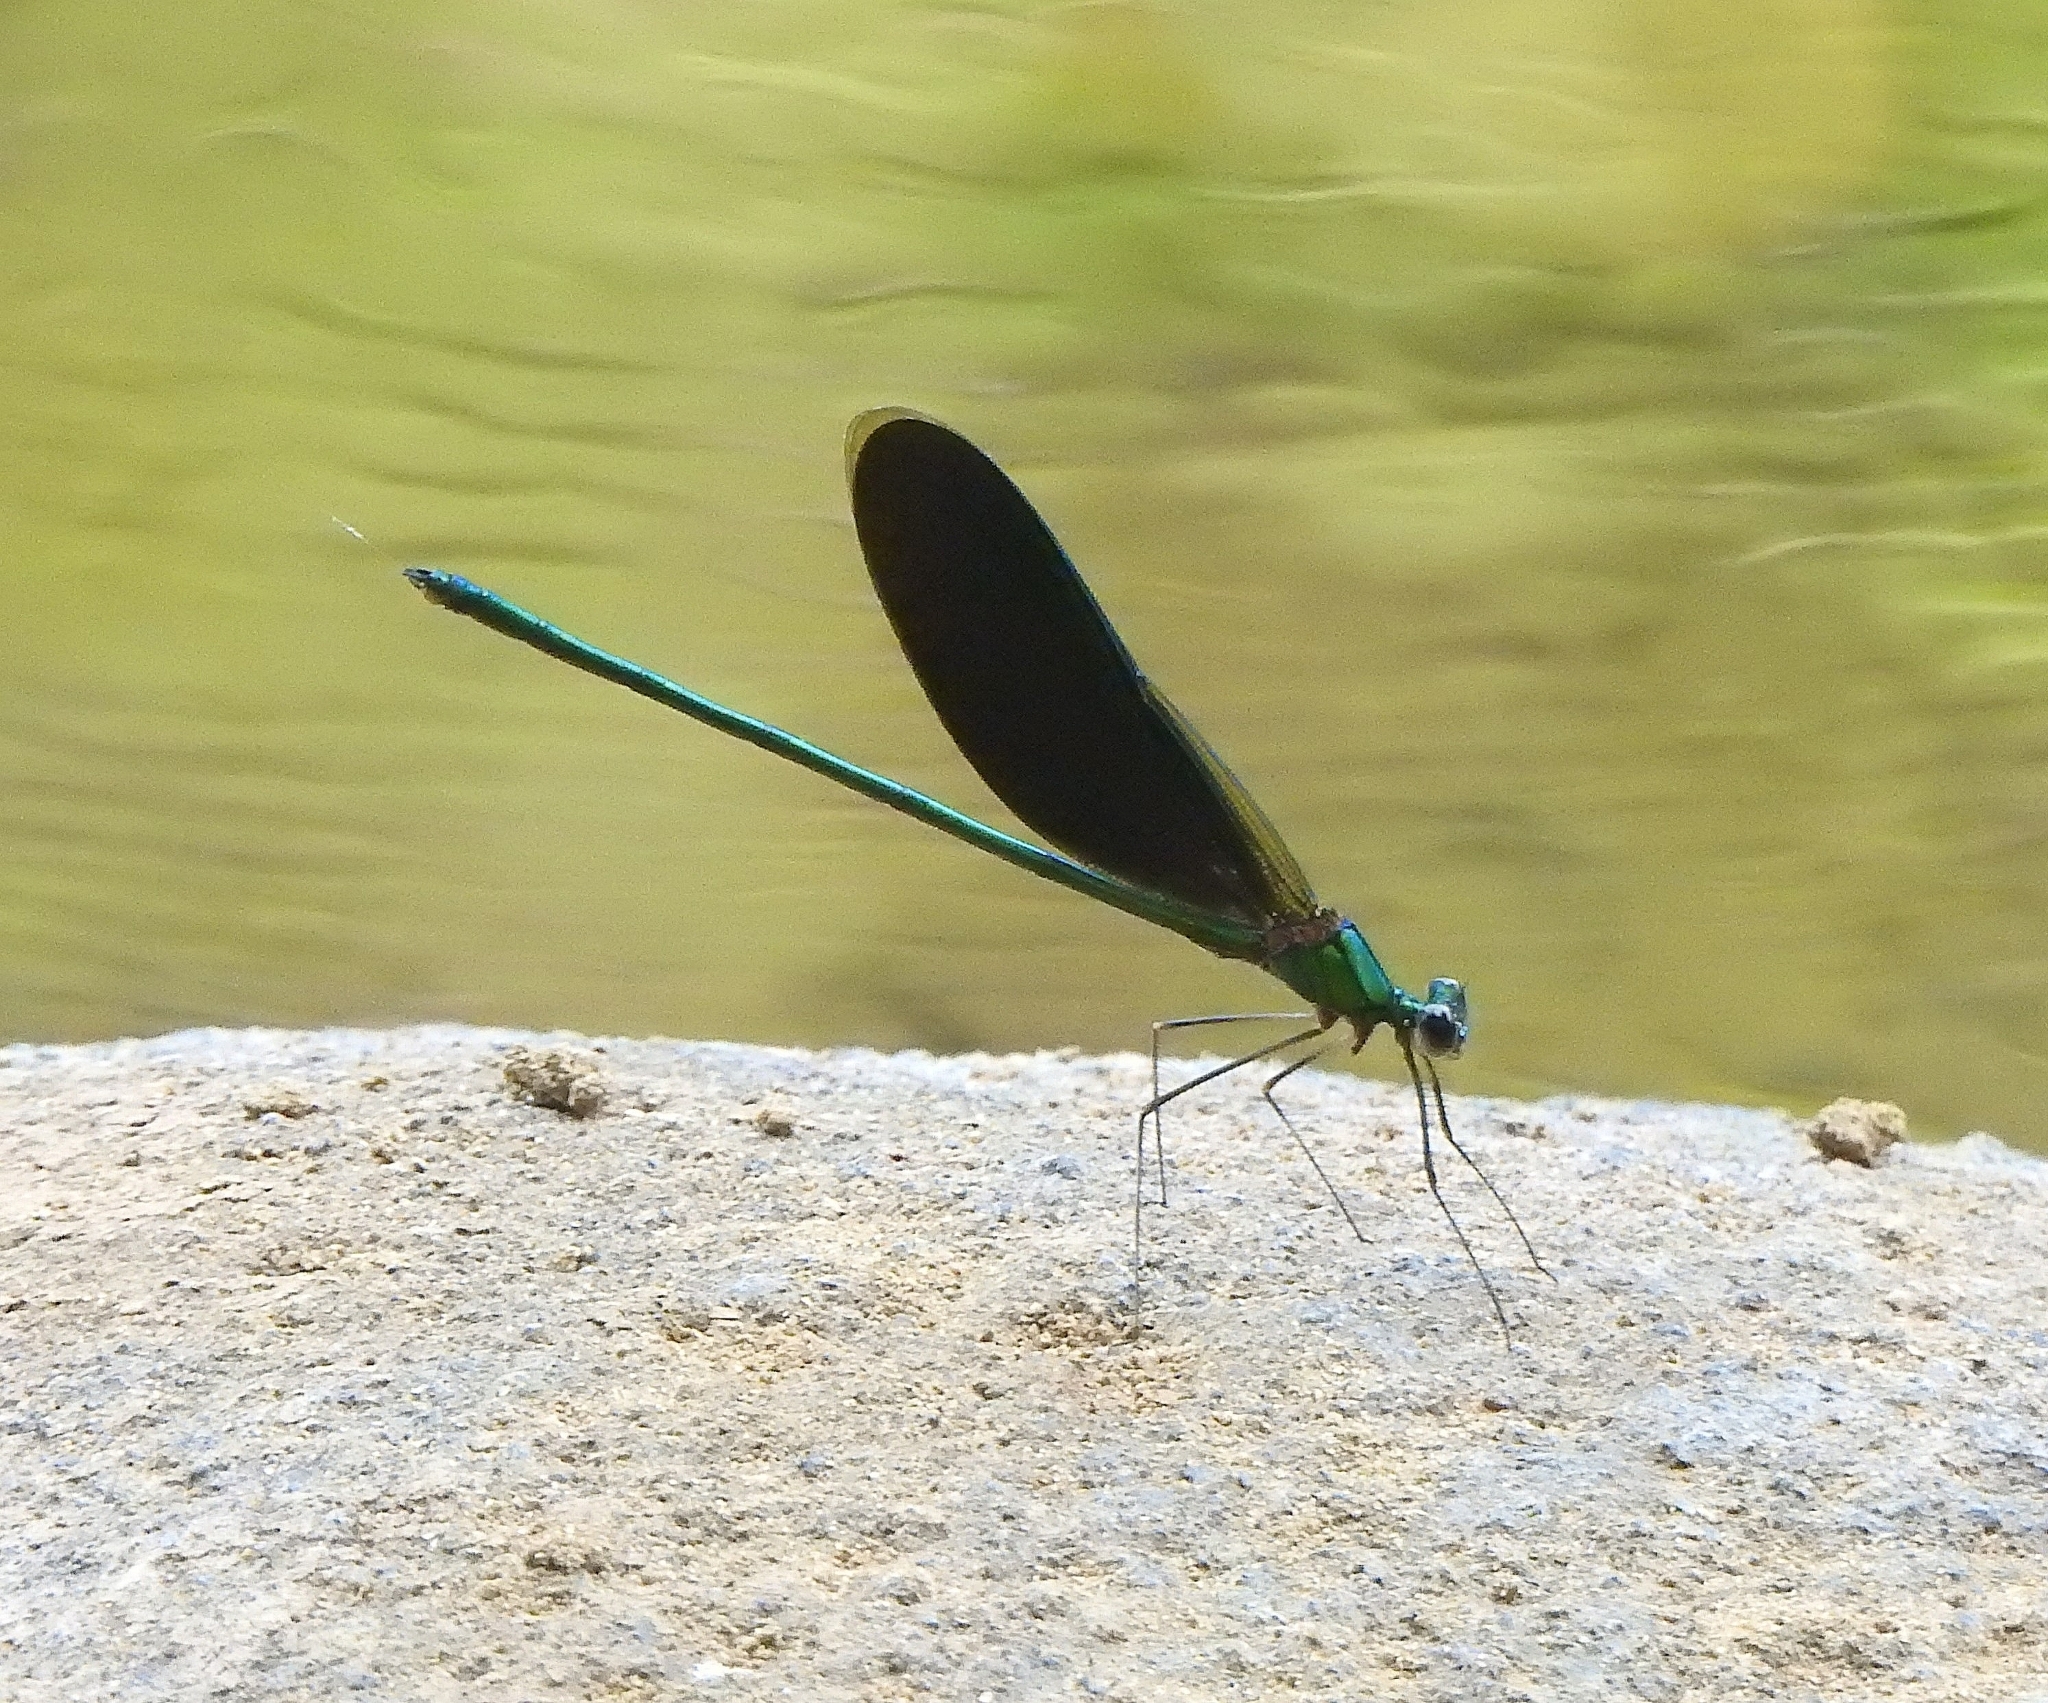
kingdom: Animalia
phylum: Arthropoda
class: Insecta
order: Odonata
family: Calopterygidae
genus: Neurobasis
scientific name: Neurobasis chinensis
